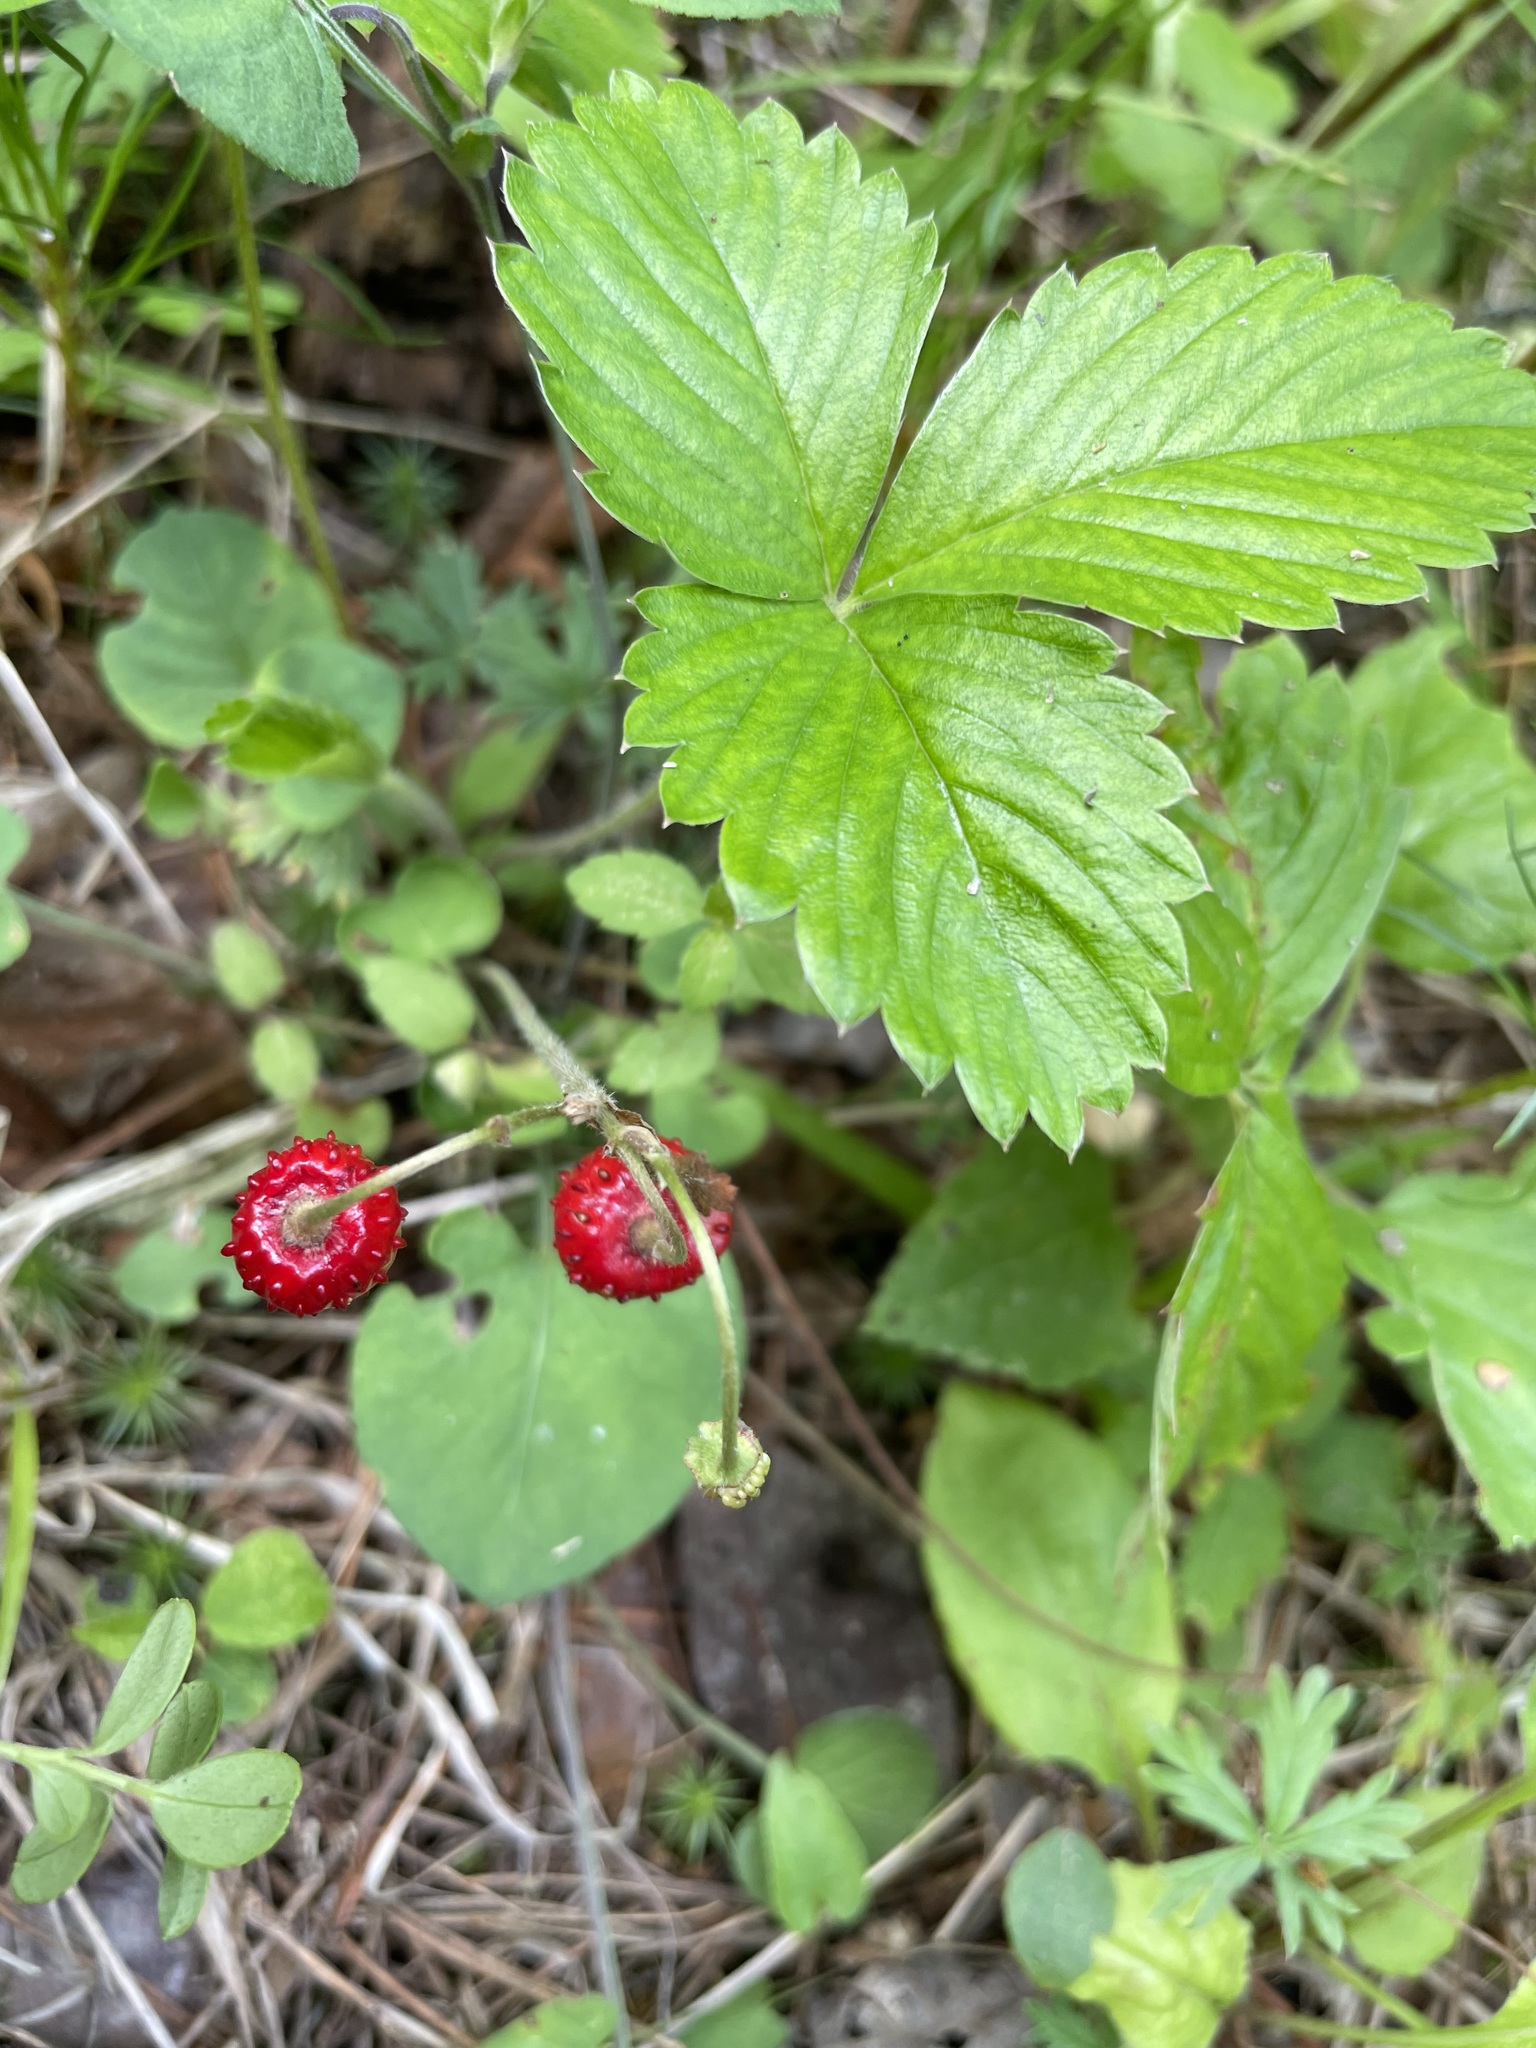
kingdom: Plantae
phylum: Tracheophyta
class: Magnoliopsida
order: Rosales
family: Rosaceae
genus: Fragaria
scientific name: Fragaria vesca
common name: Wild strawberry
